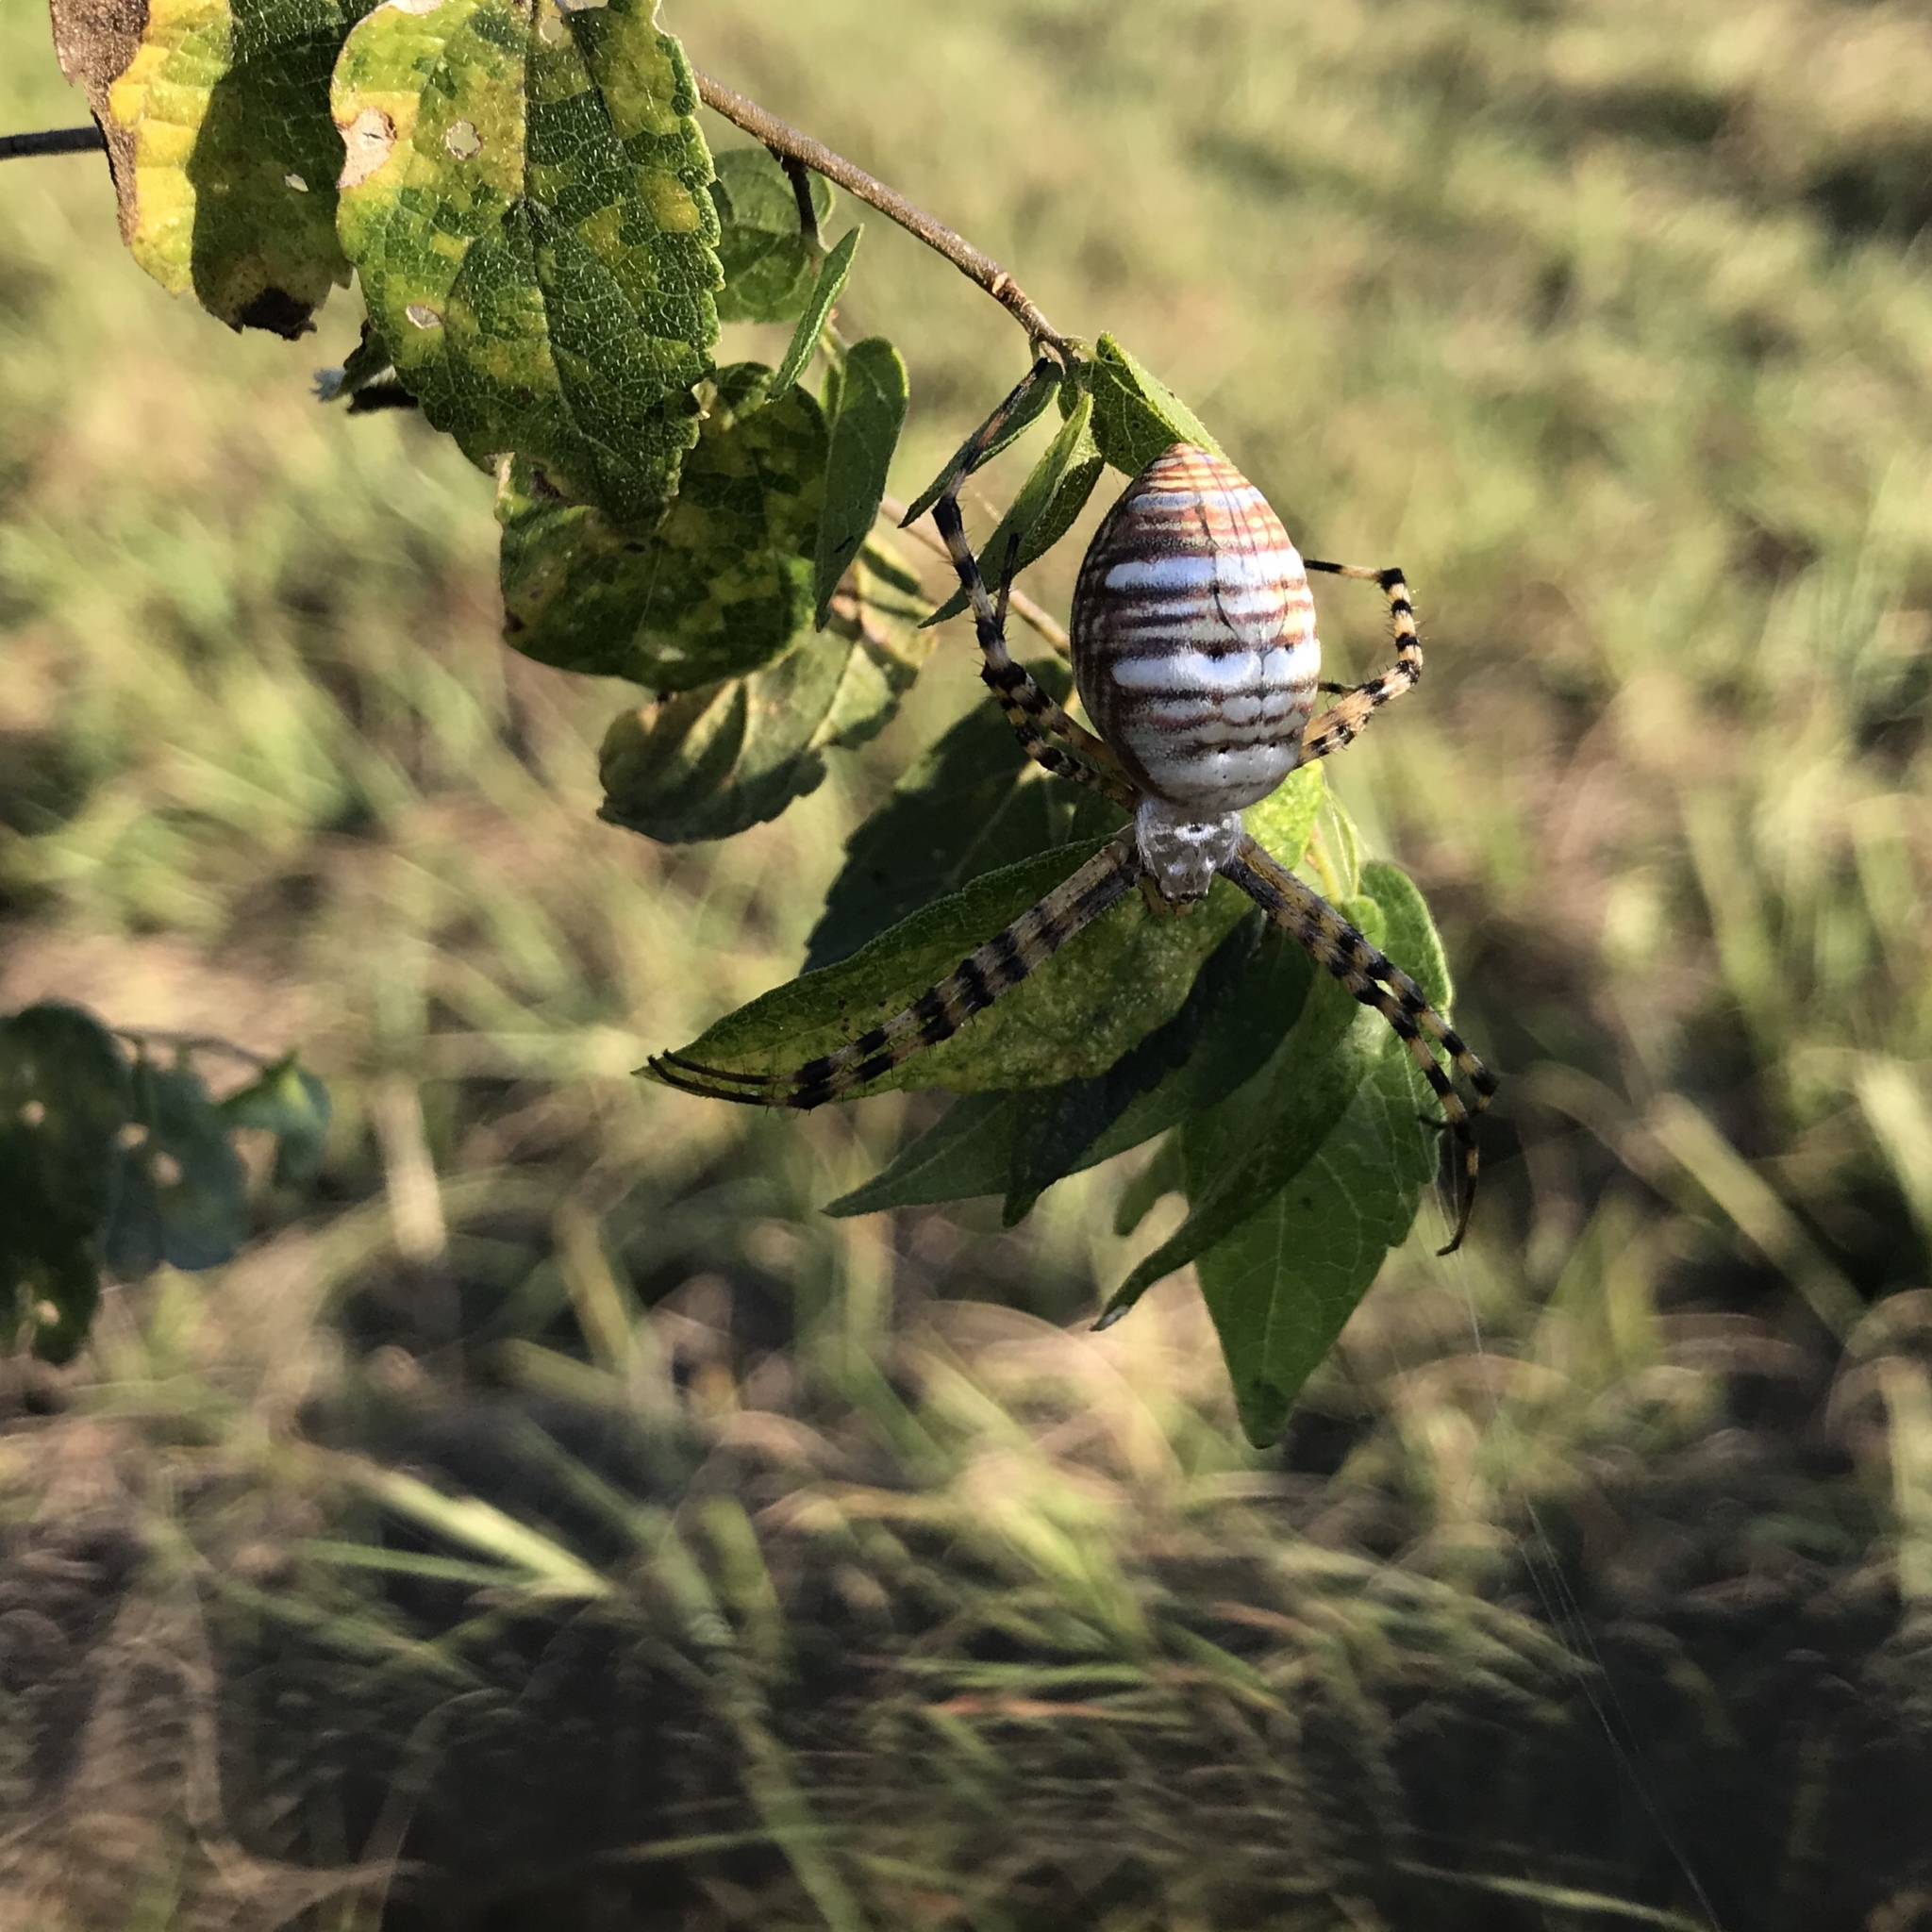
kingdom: Animalia
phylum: Arthropoda
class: Arachnida
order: Araneae
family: Araneidae
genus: Argiope
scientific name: Argiope trifasciata
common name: Banded garden spider
